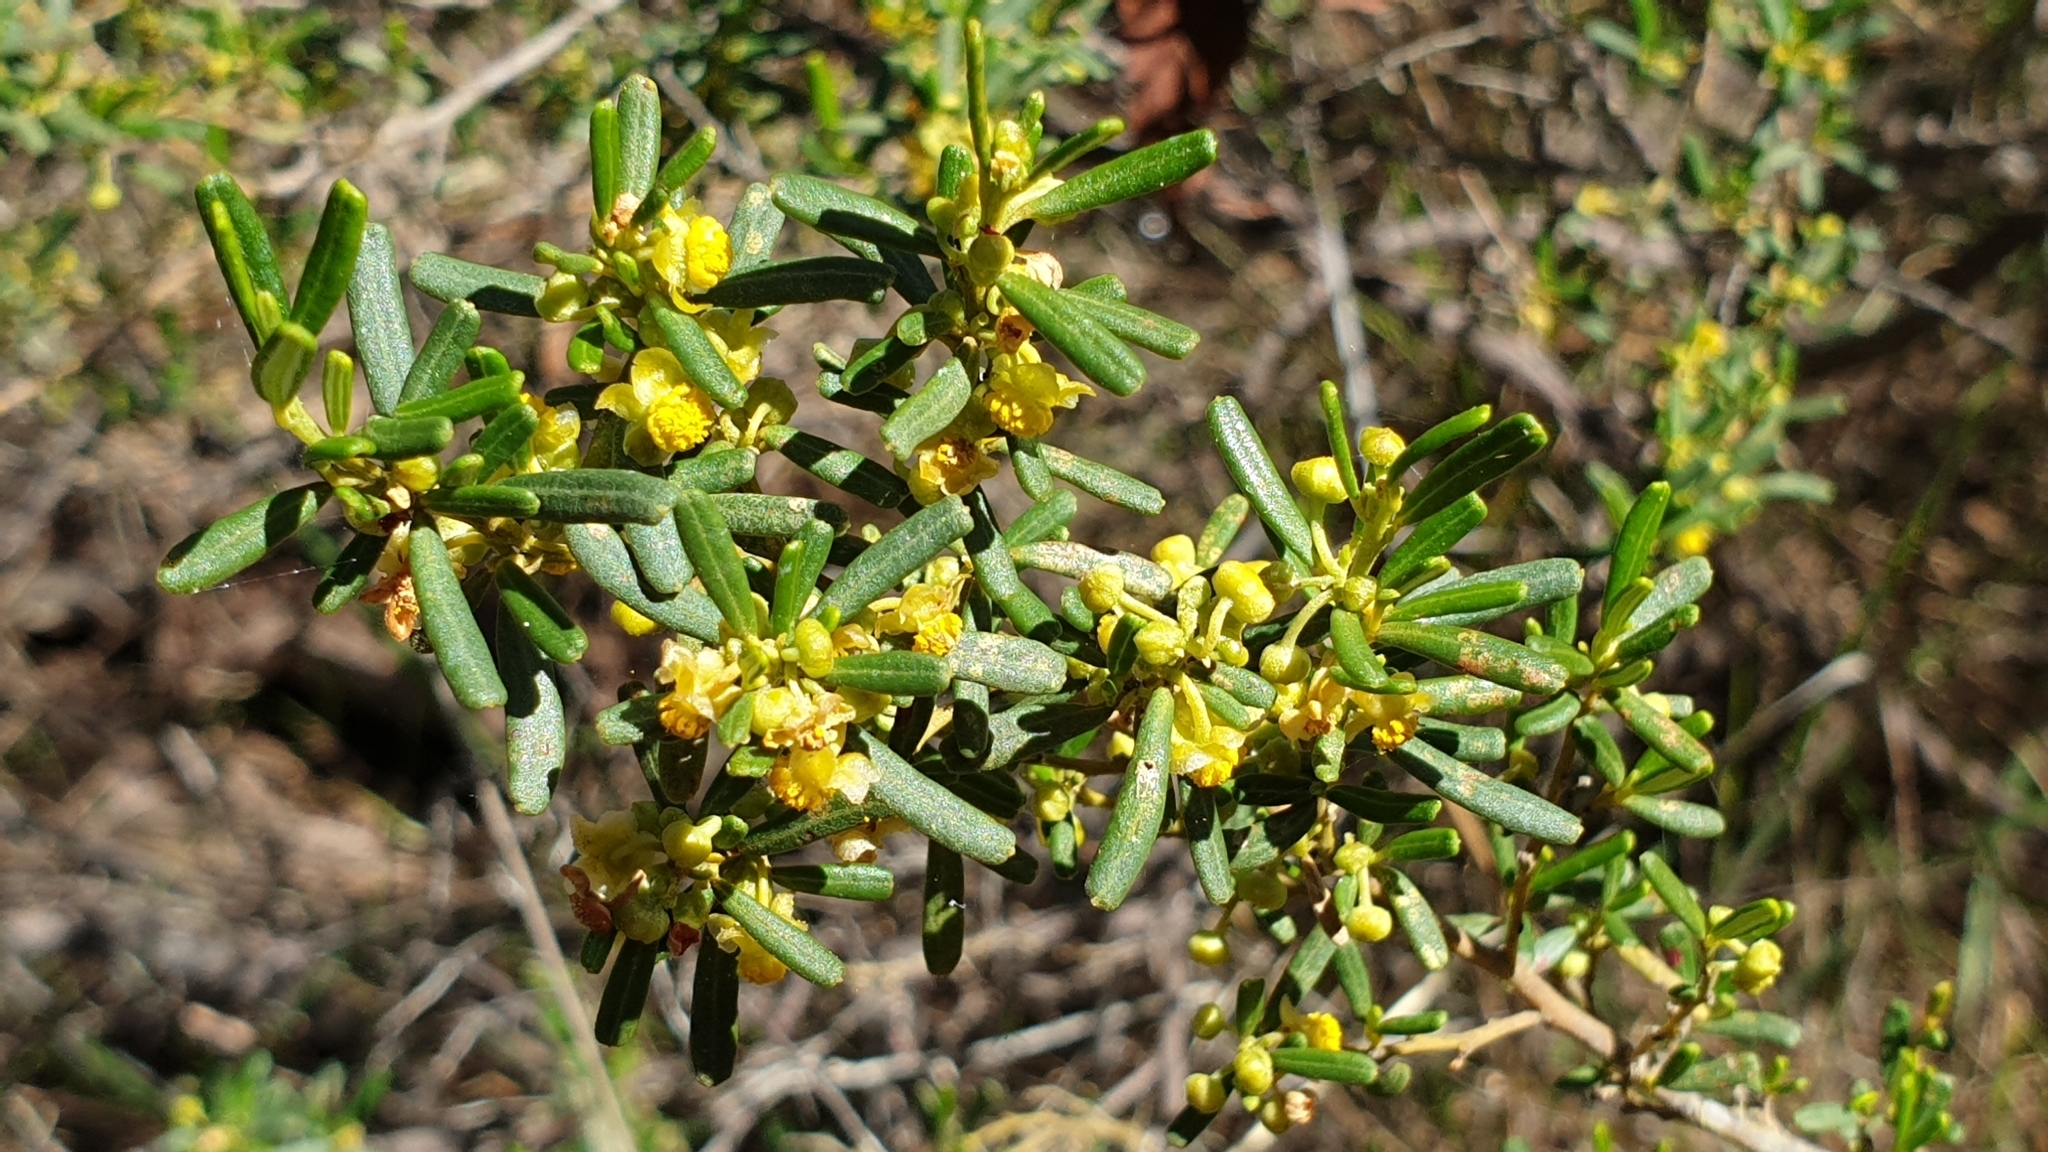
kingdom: Plantae
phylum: Tracheophyta
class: Magnoliopsida
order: Malpighiales
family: Euphorbiaceae
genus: Beyeria
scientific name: Beyeria lechenaultii
